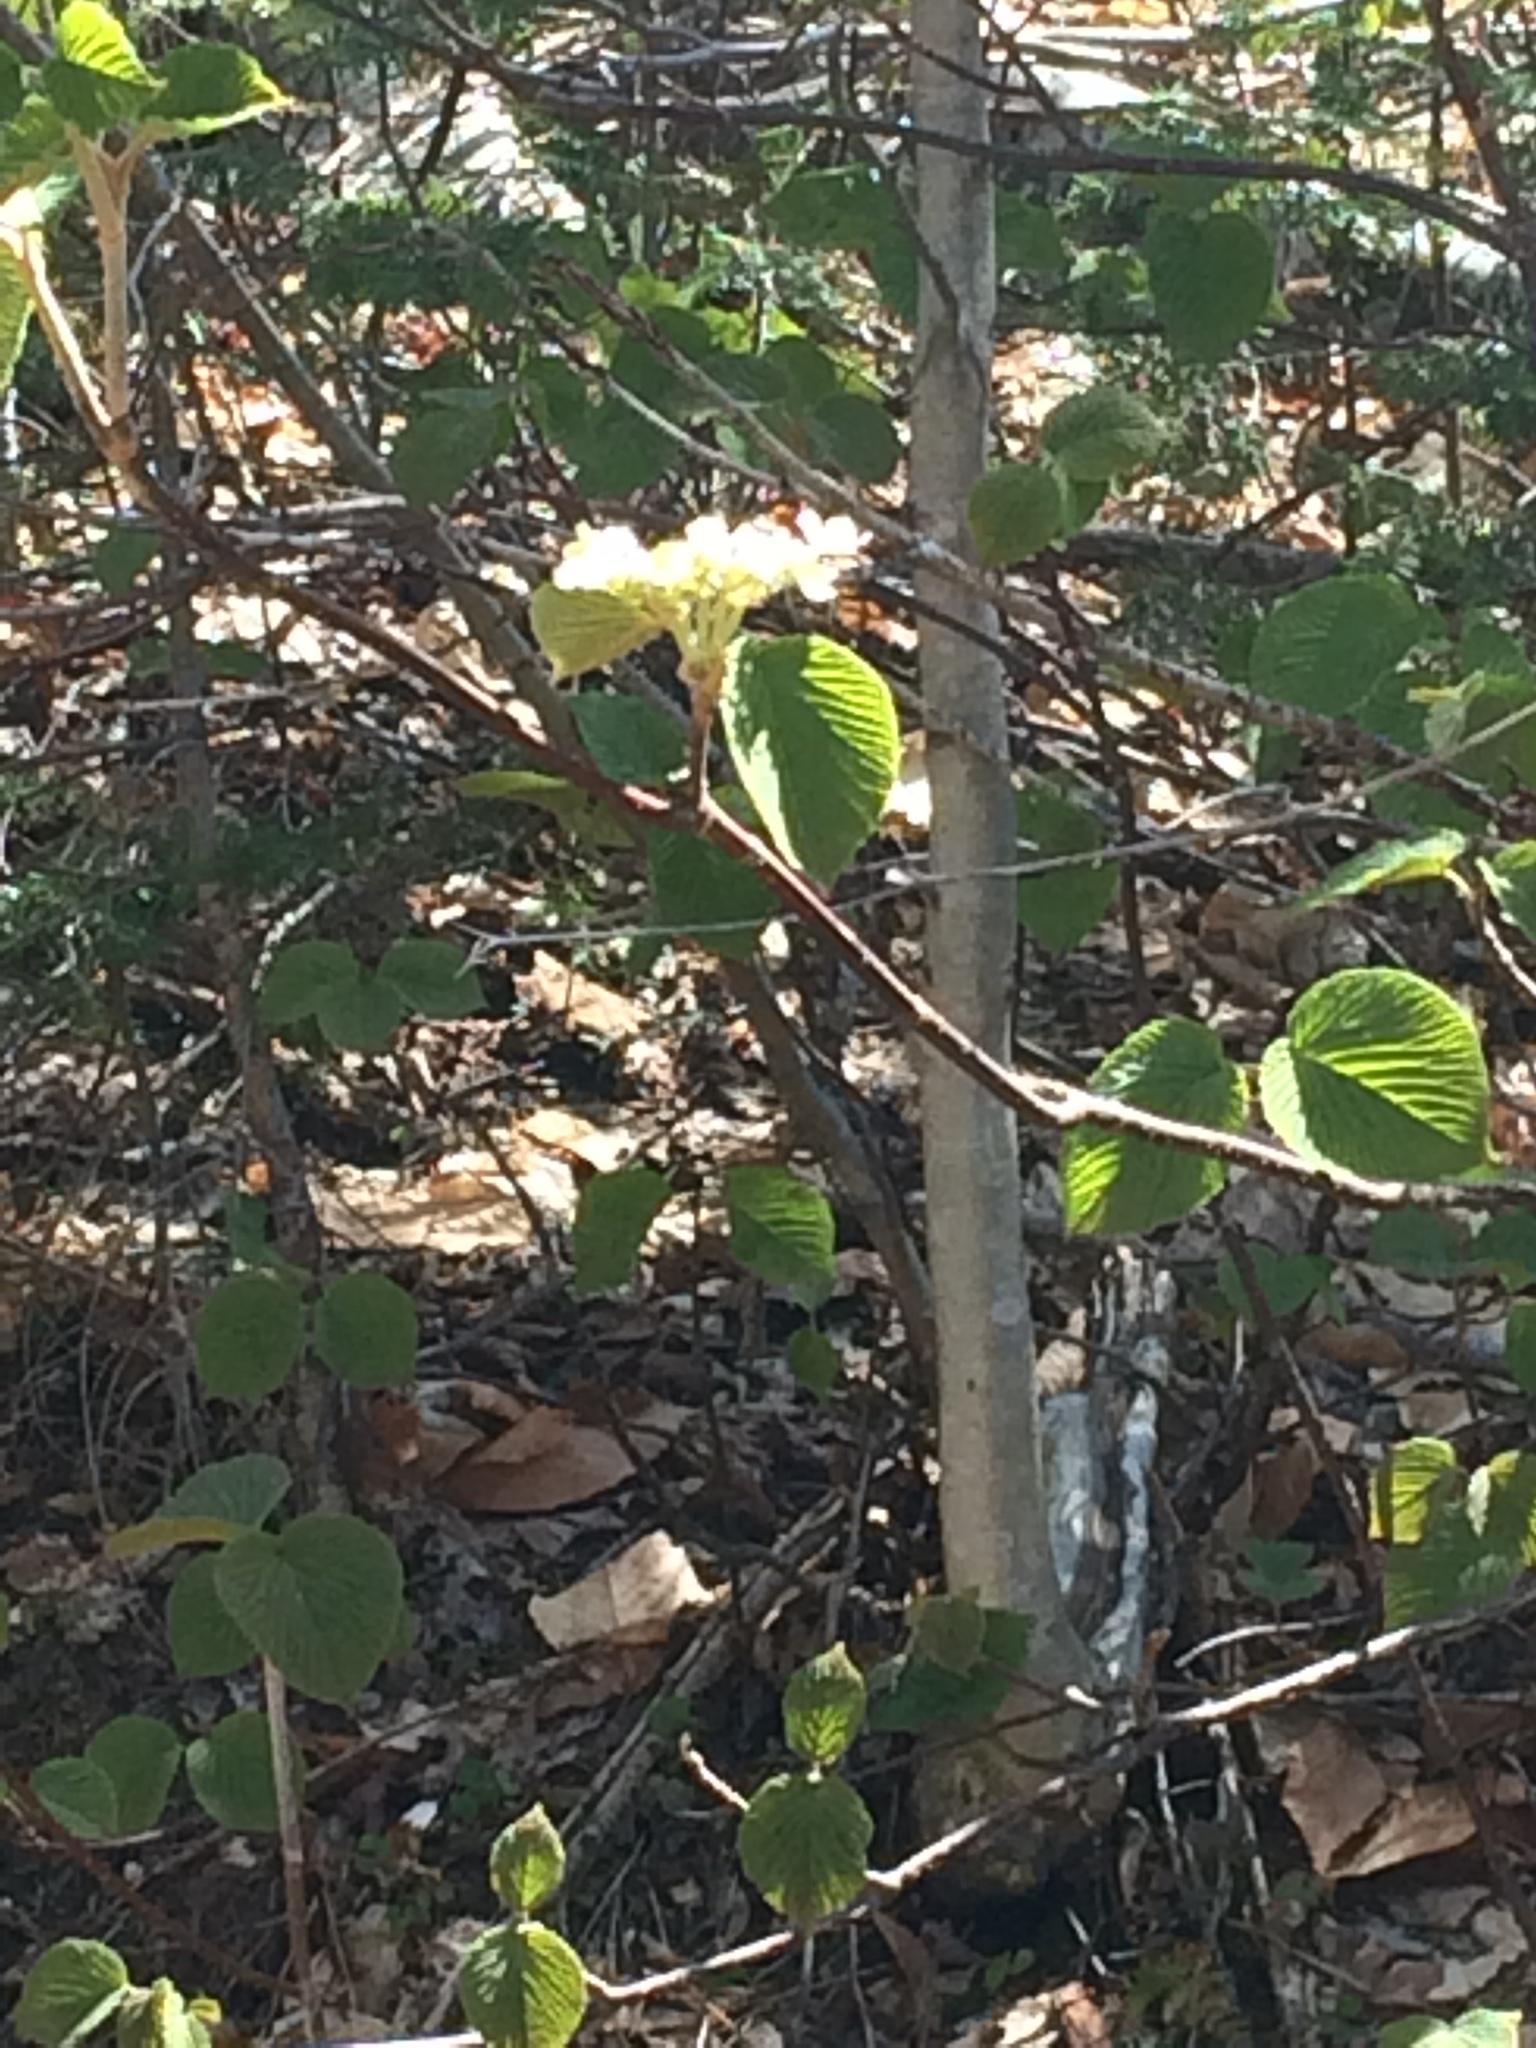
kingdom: Plantae
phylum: Tracheophyta
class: Magnoliopsida
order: Dipsacales
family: Viburnaceae
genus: Viburnum
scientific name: Viburnum lantanoides
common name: Hobblebush
